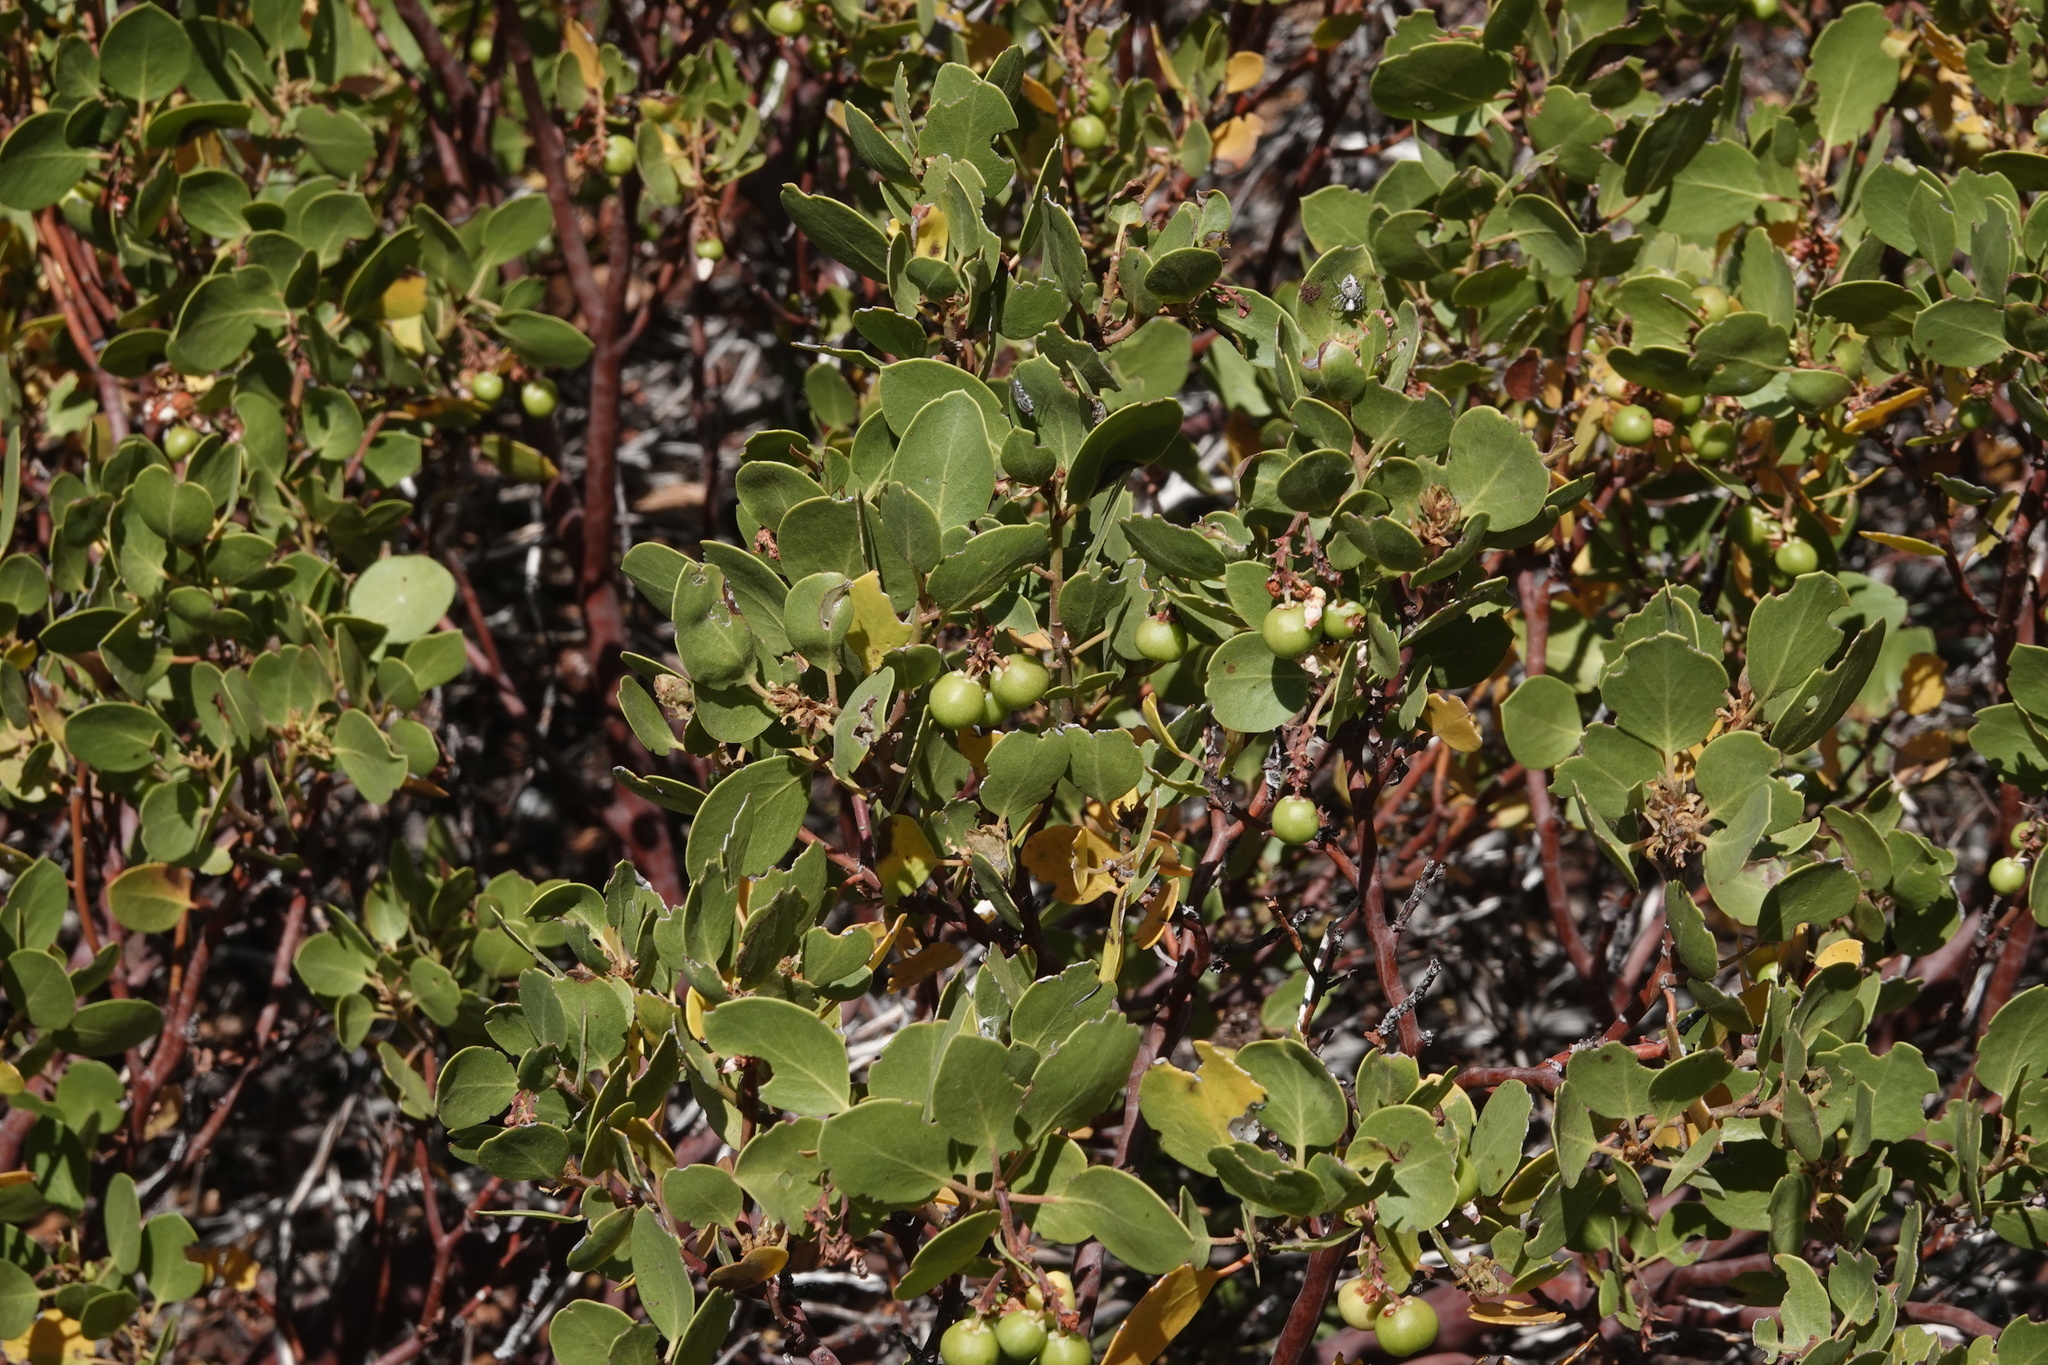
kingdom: Plantae
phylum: Tracheophyta
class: Magnoliopsida
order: Ericales
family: Ericaceae
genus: Arctostaphylos
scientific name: Arctostaphylos patula
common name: Green-leaf manzanita
